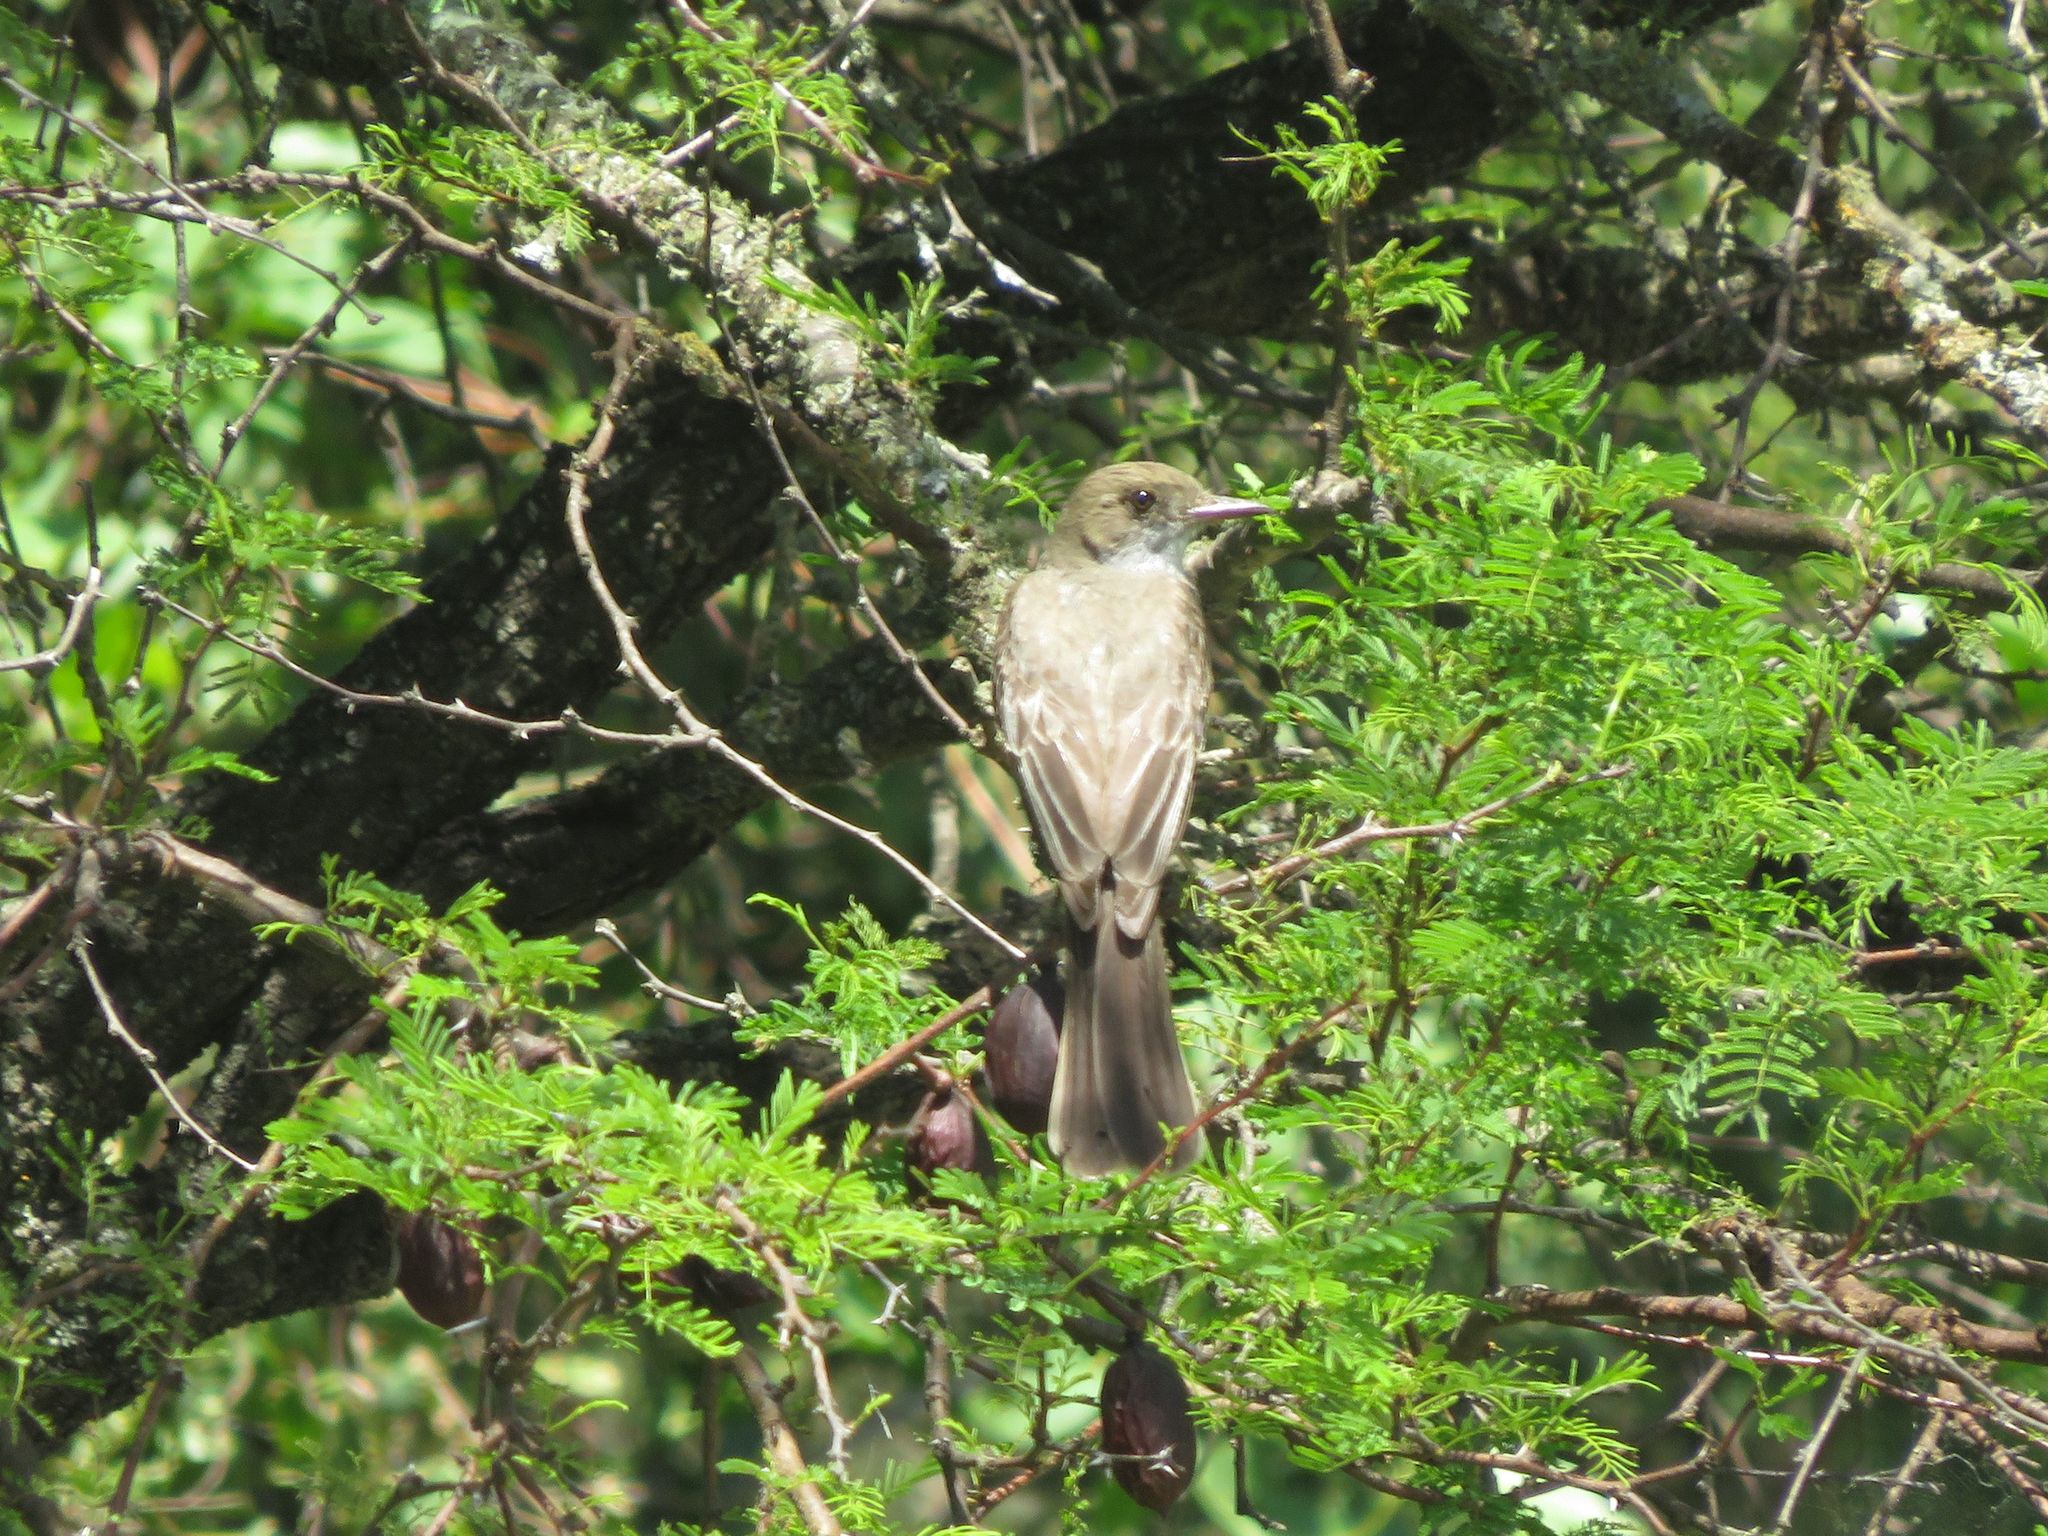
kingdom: Animalia
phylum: Chordata
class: Aves
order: Passeriformes
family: Tyrannidae
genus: Myiarchus
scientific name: Myiarchus swainsoni
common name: Swainson's flycatcher
